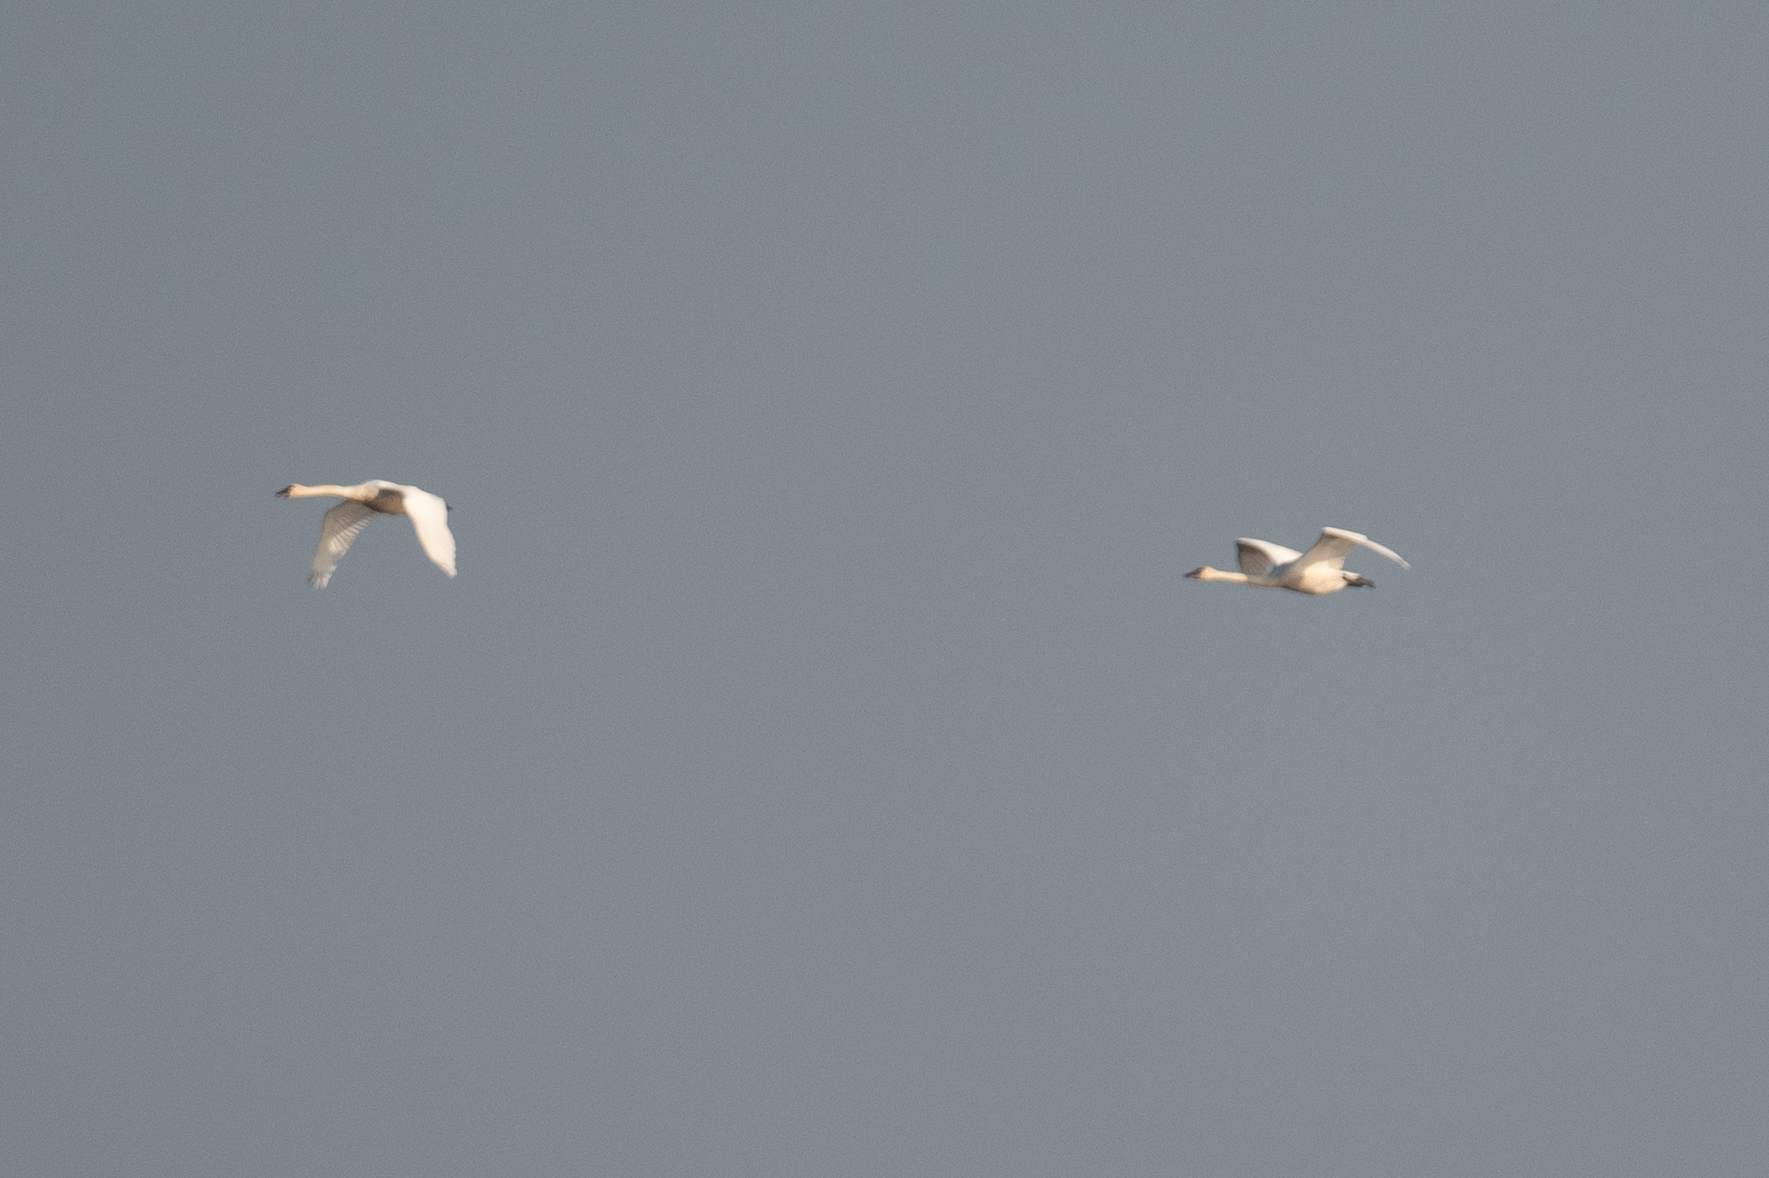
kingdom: Animalia
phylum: Chordata
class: Aves
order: Anseriformes
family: Anatidae
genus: Cygnus
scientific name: Cygnus columbianus
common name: Tundra swan
